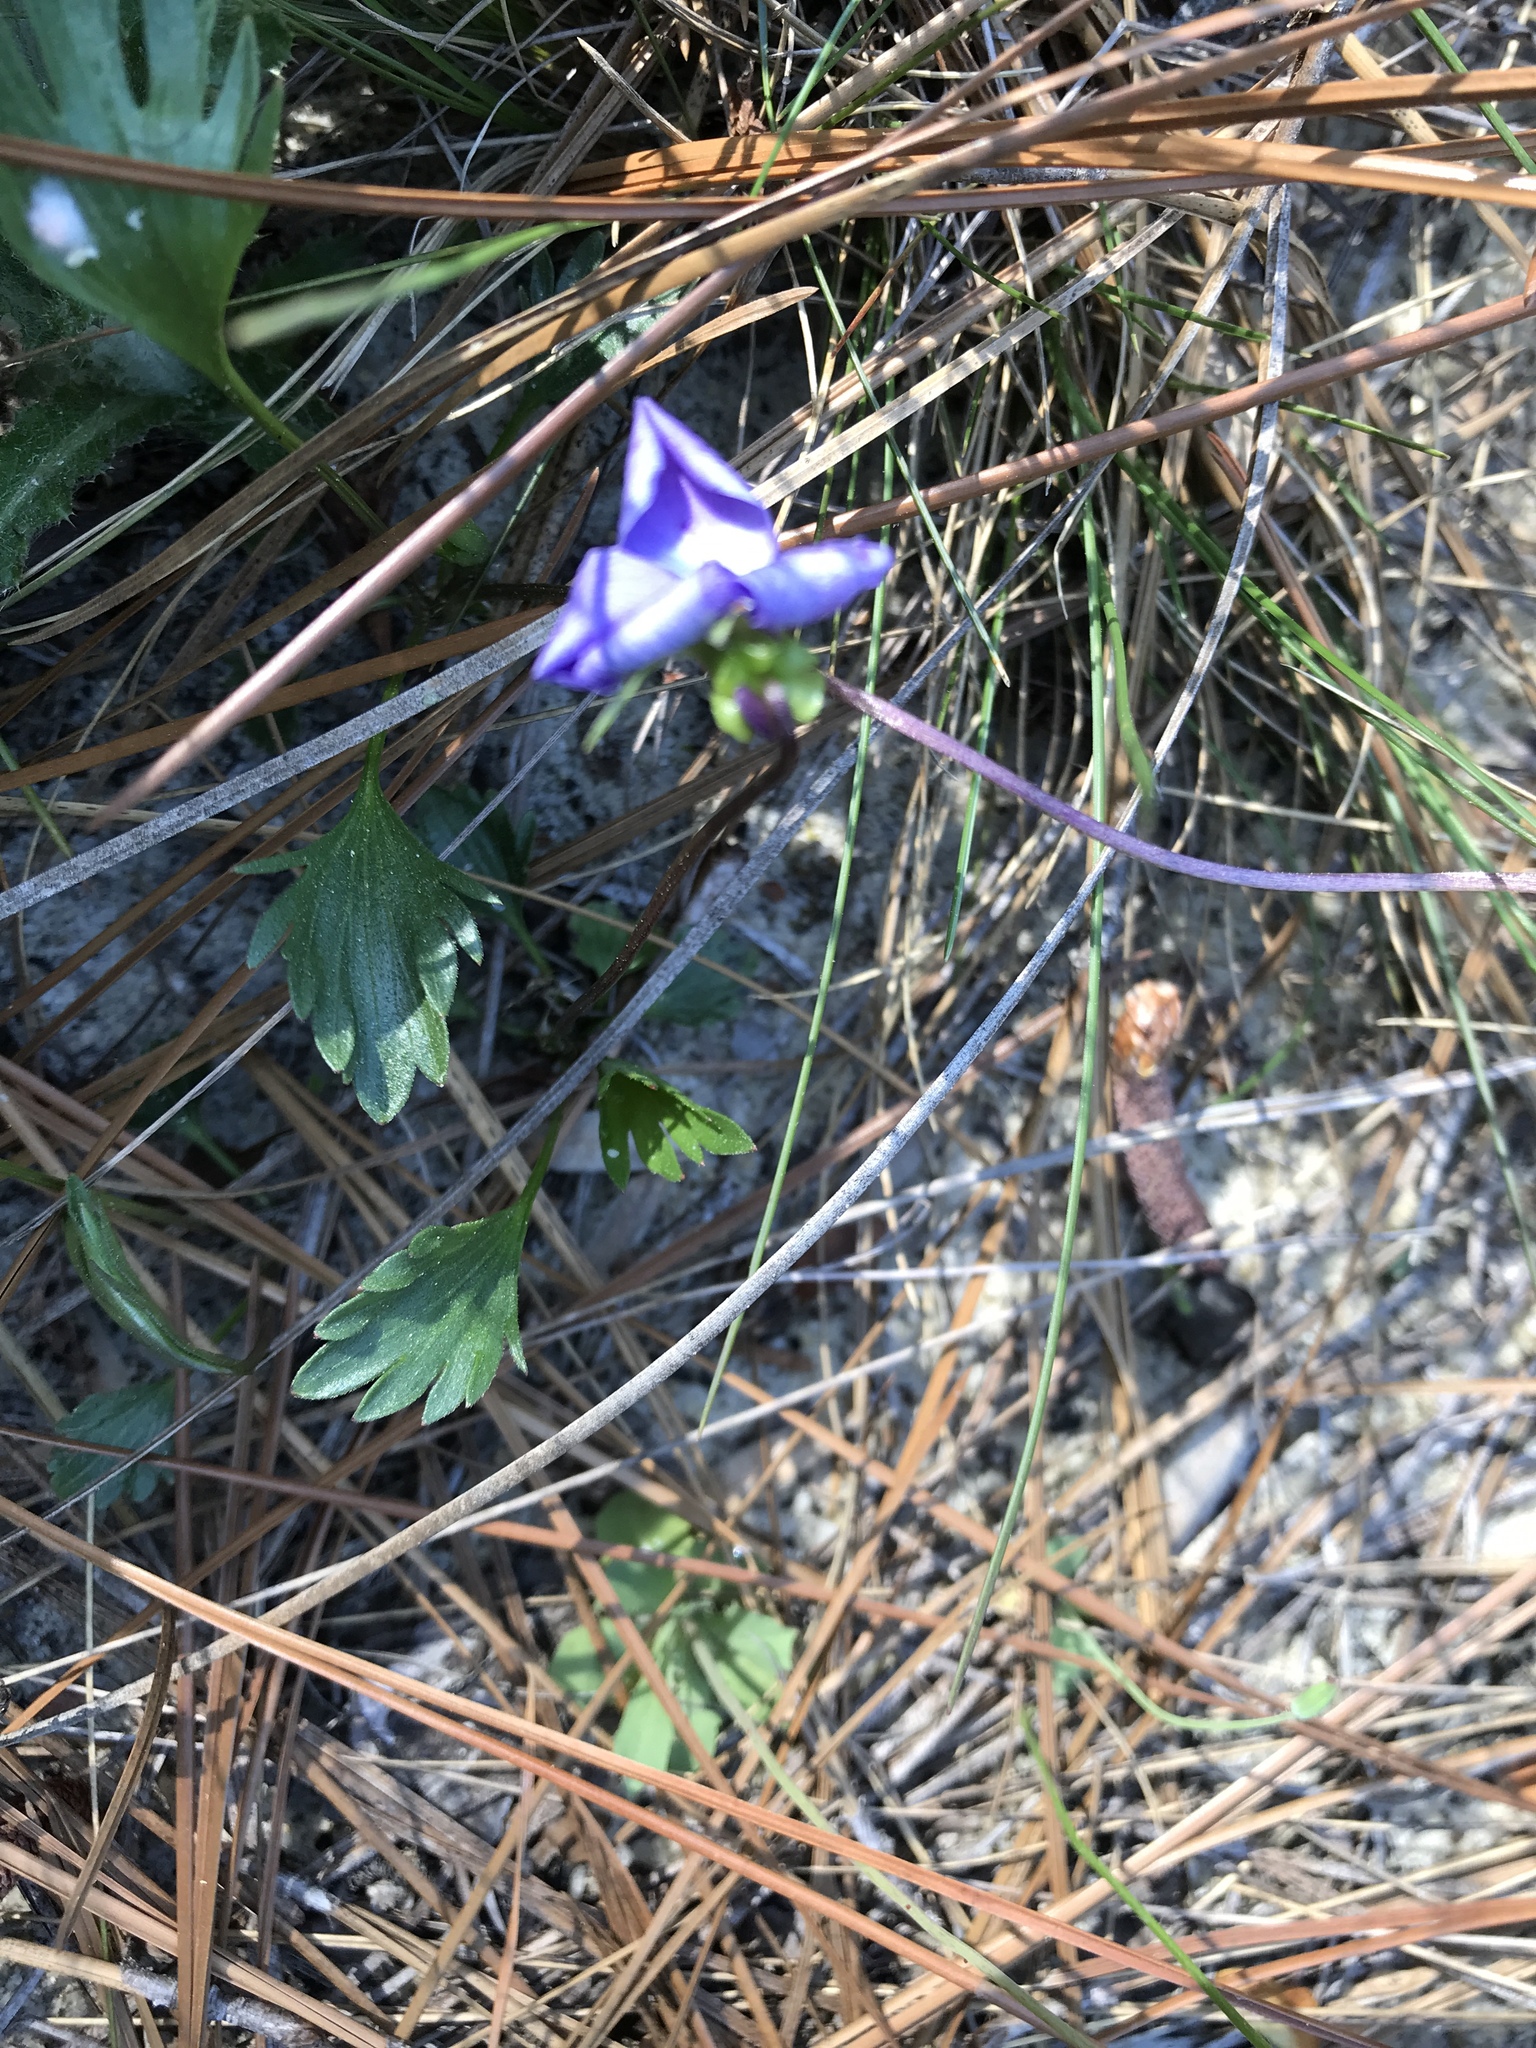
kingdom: Plantae
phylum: Tracheophyta
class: Magnoliopsida
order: Malpighiales
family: Violaceae
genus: Viola
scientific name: Viola pedata
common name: Pansy violet
